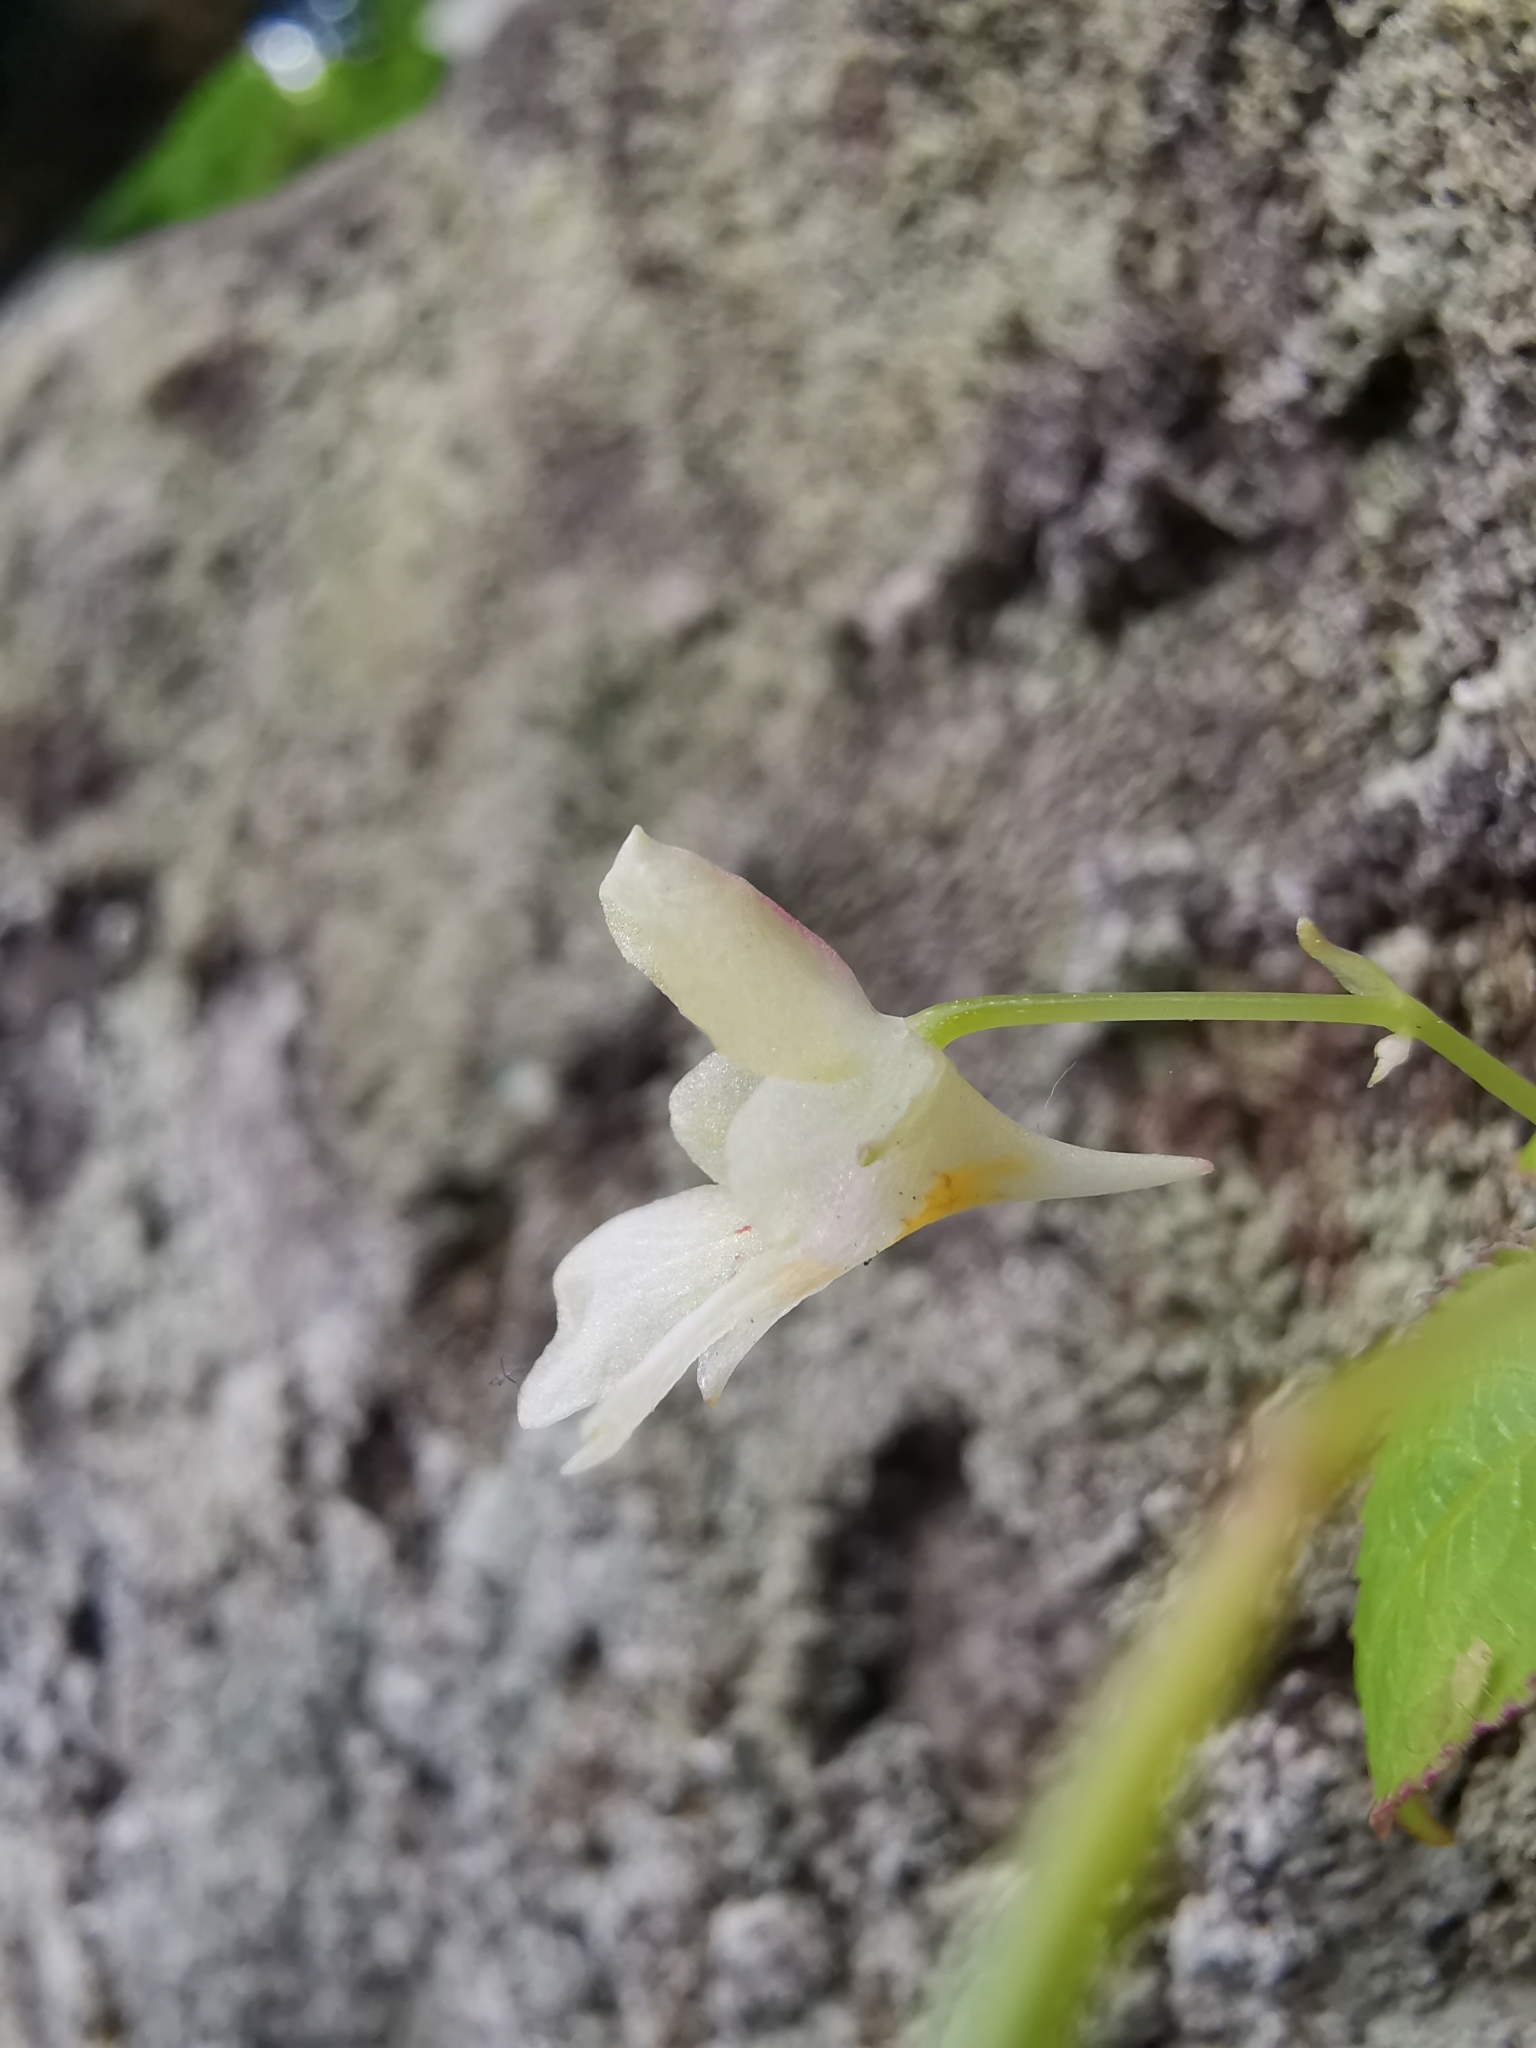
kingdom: Plantae
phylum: Tracheophyta
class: Magnoliopsida
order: Ericales
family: Balsaminaceae
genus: Impatiens
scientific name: Impatiens parviflora
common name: Small balsam
